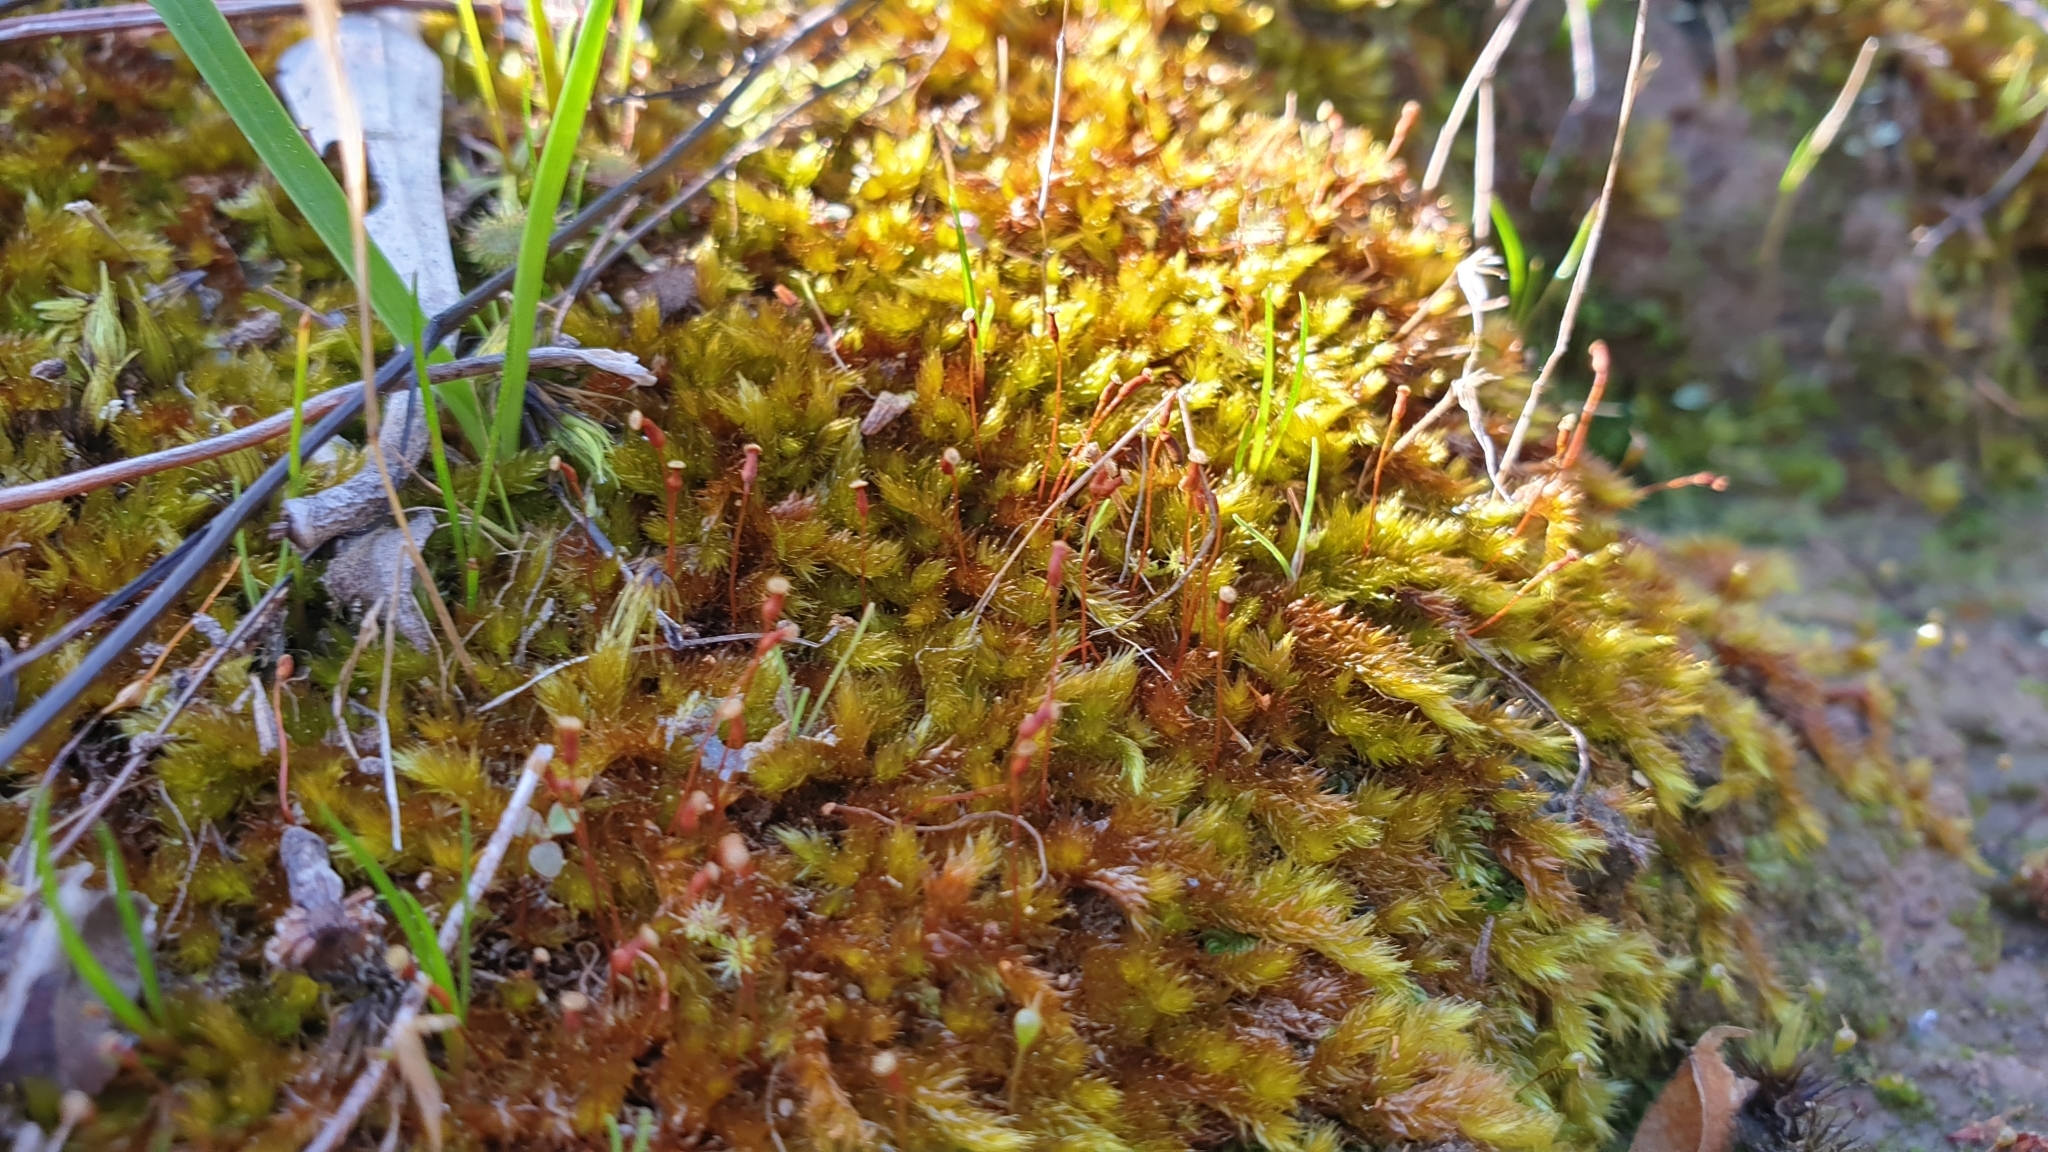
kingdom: Plantae
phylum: Bryophyta
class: Bryopsida
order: Hypnales
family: Sematophyllaceae
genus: Sematophyllum
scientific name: Sematophyllum homomallum
